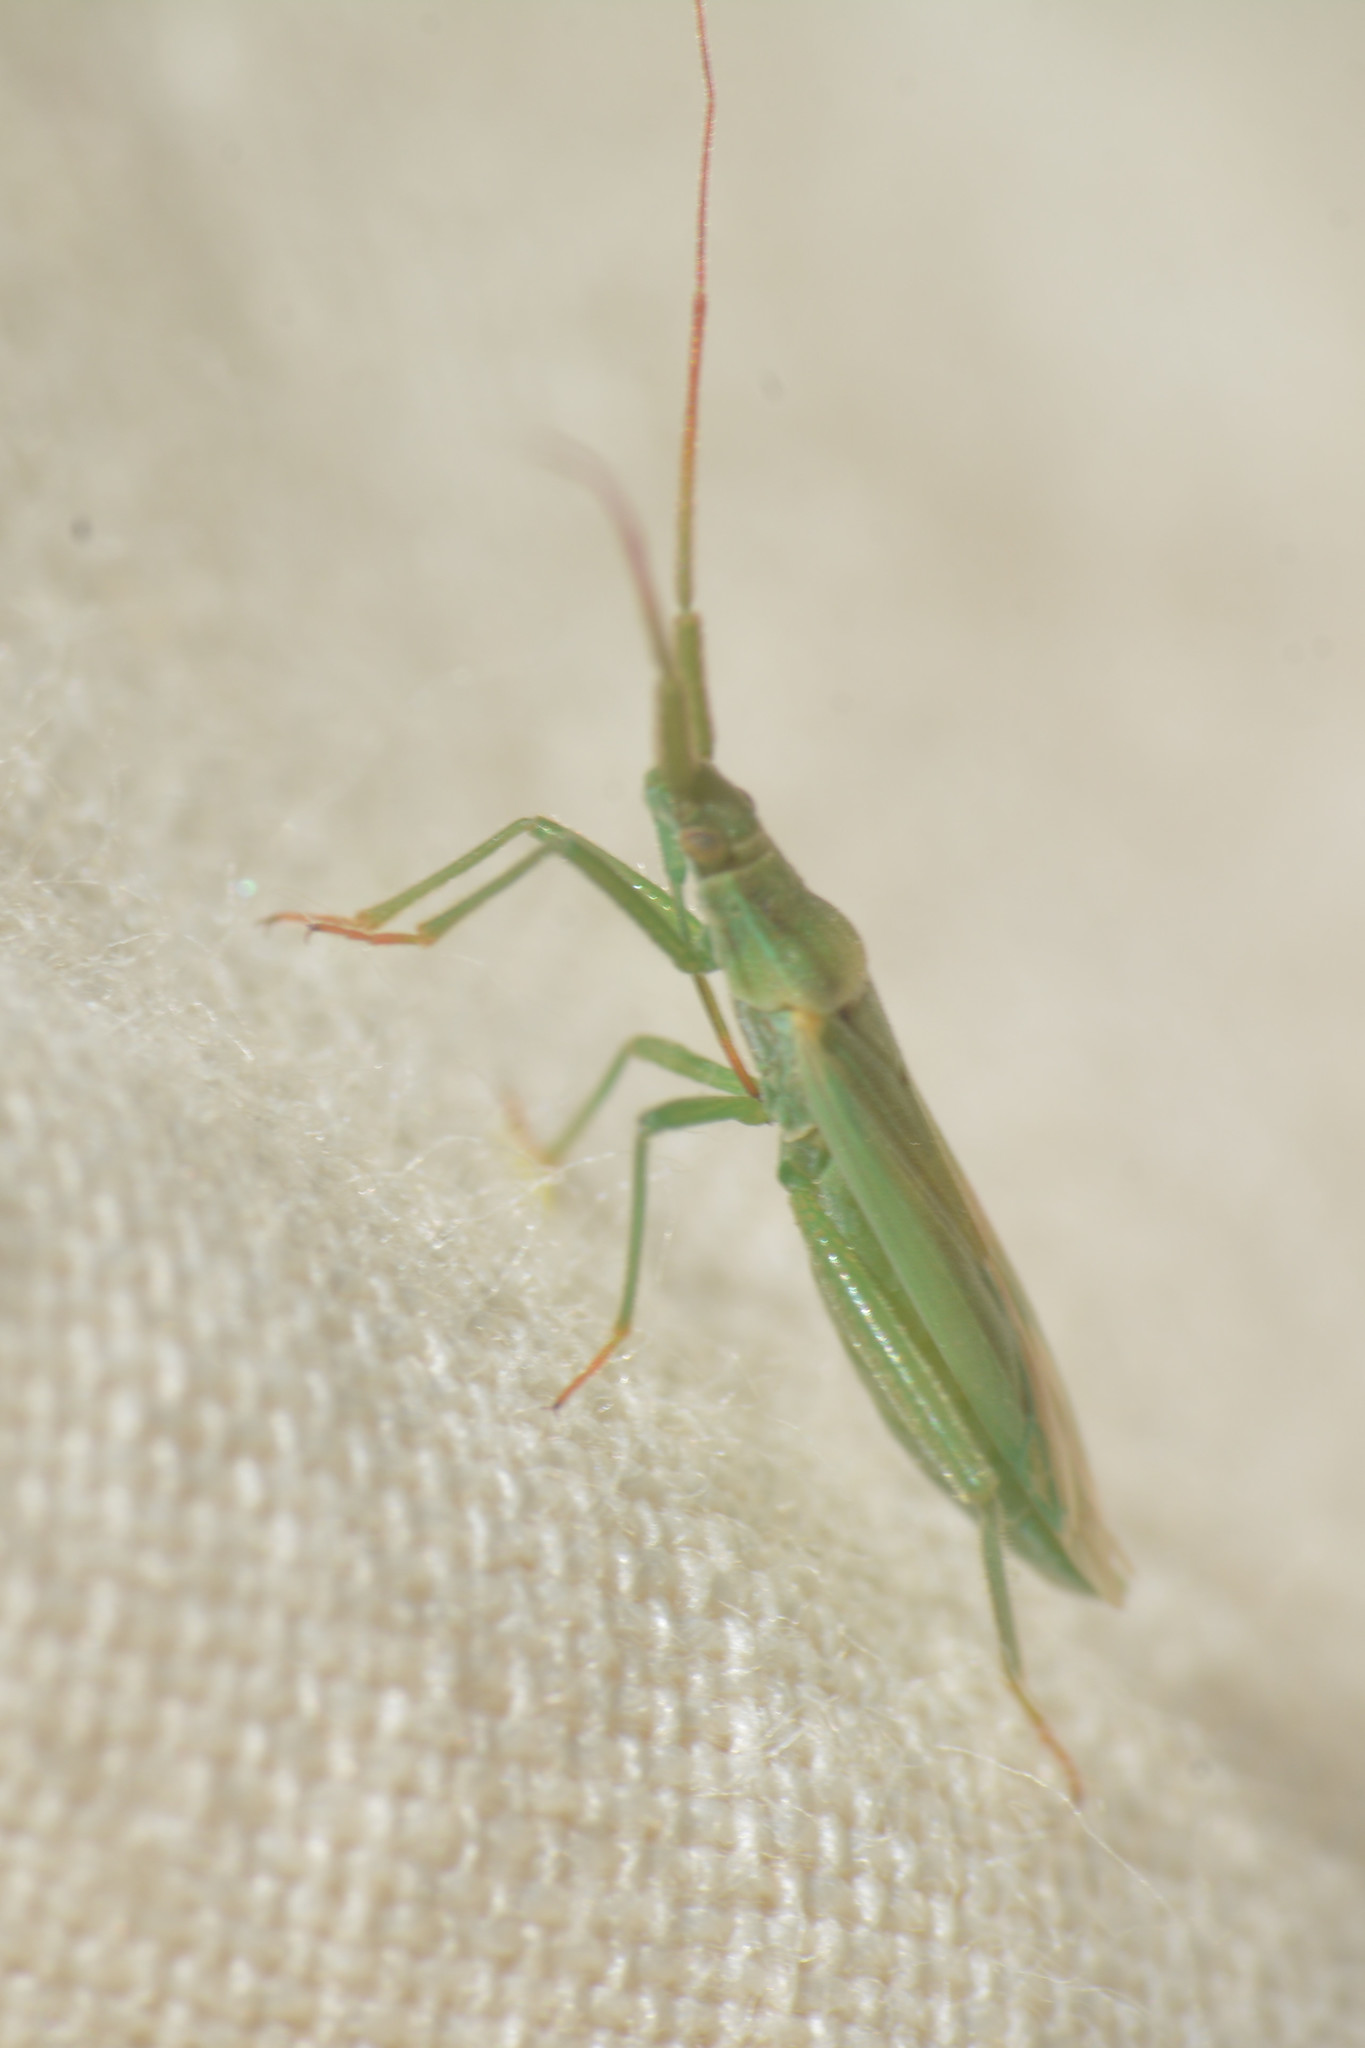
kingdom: Animalia
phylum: Arthropoda
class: Insecta
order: Hemiptera
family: Miridae
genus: Stenodema
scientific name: Stenodema laevigata
